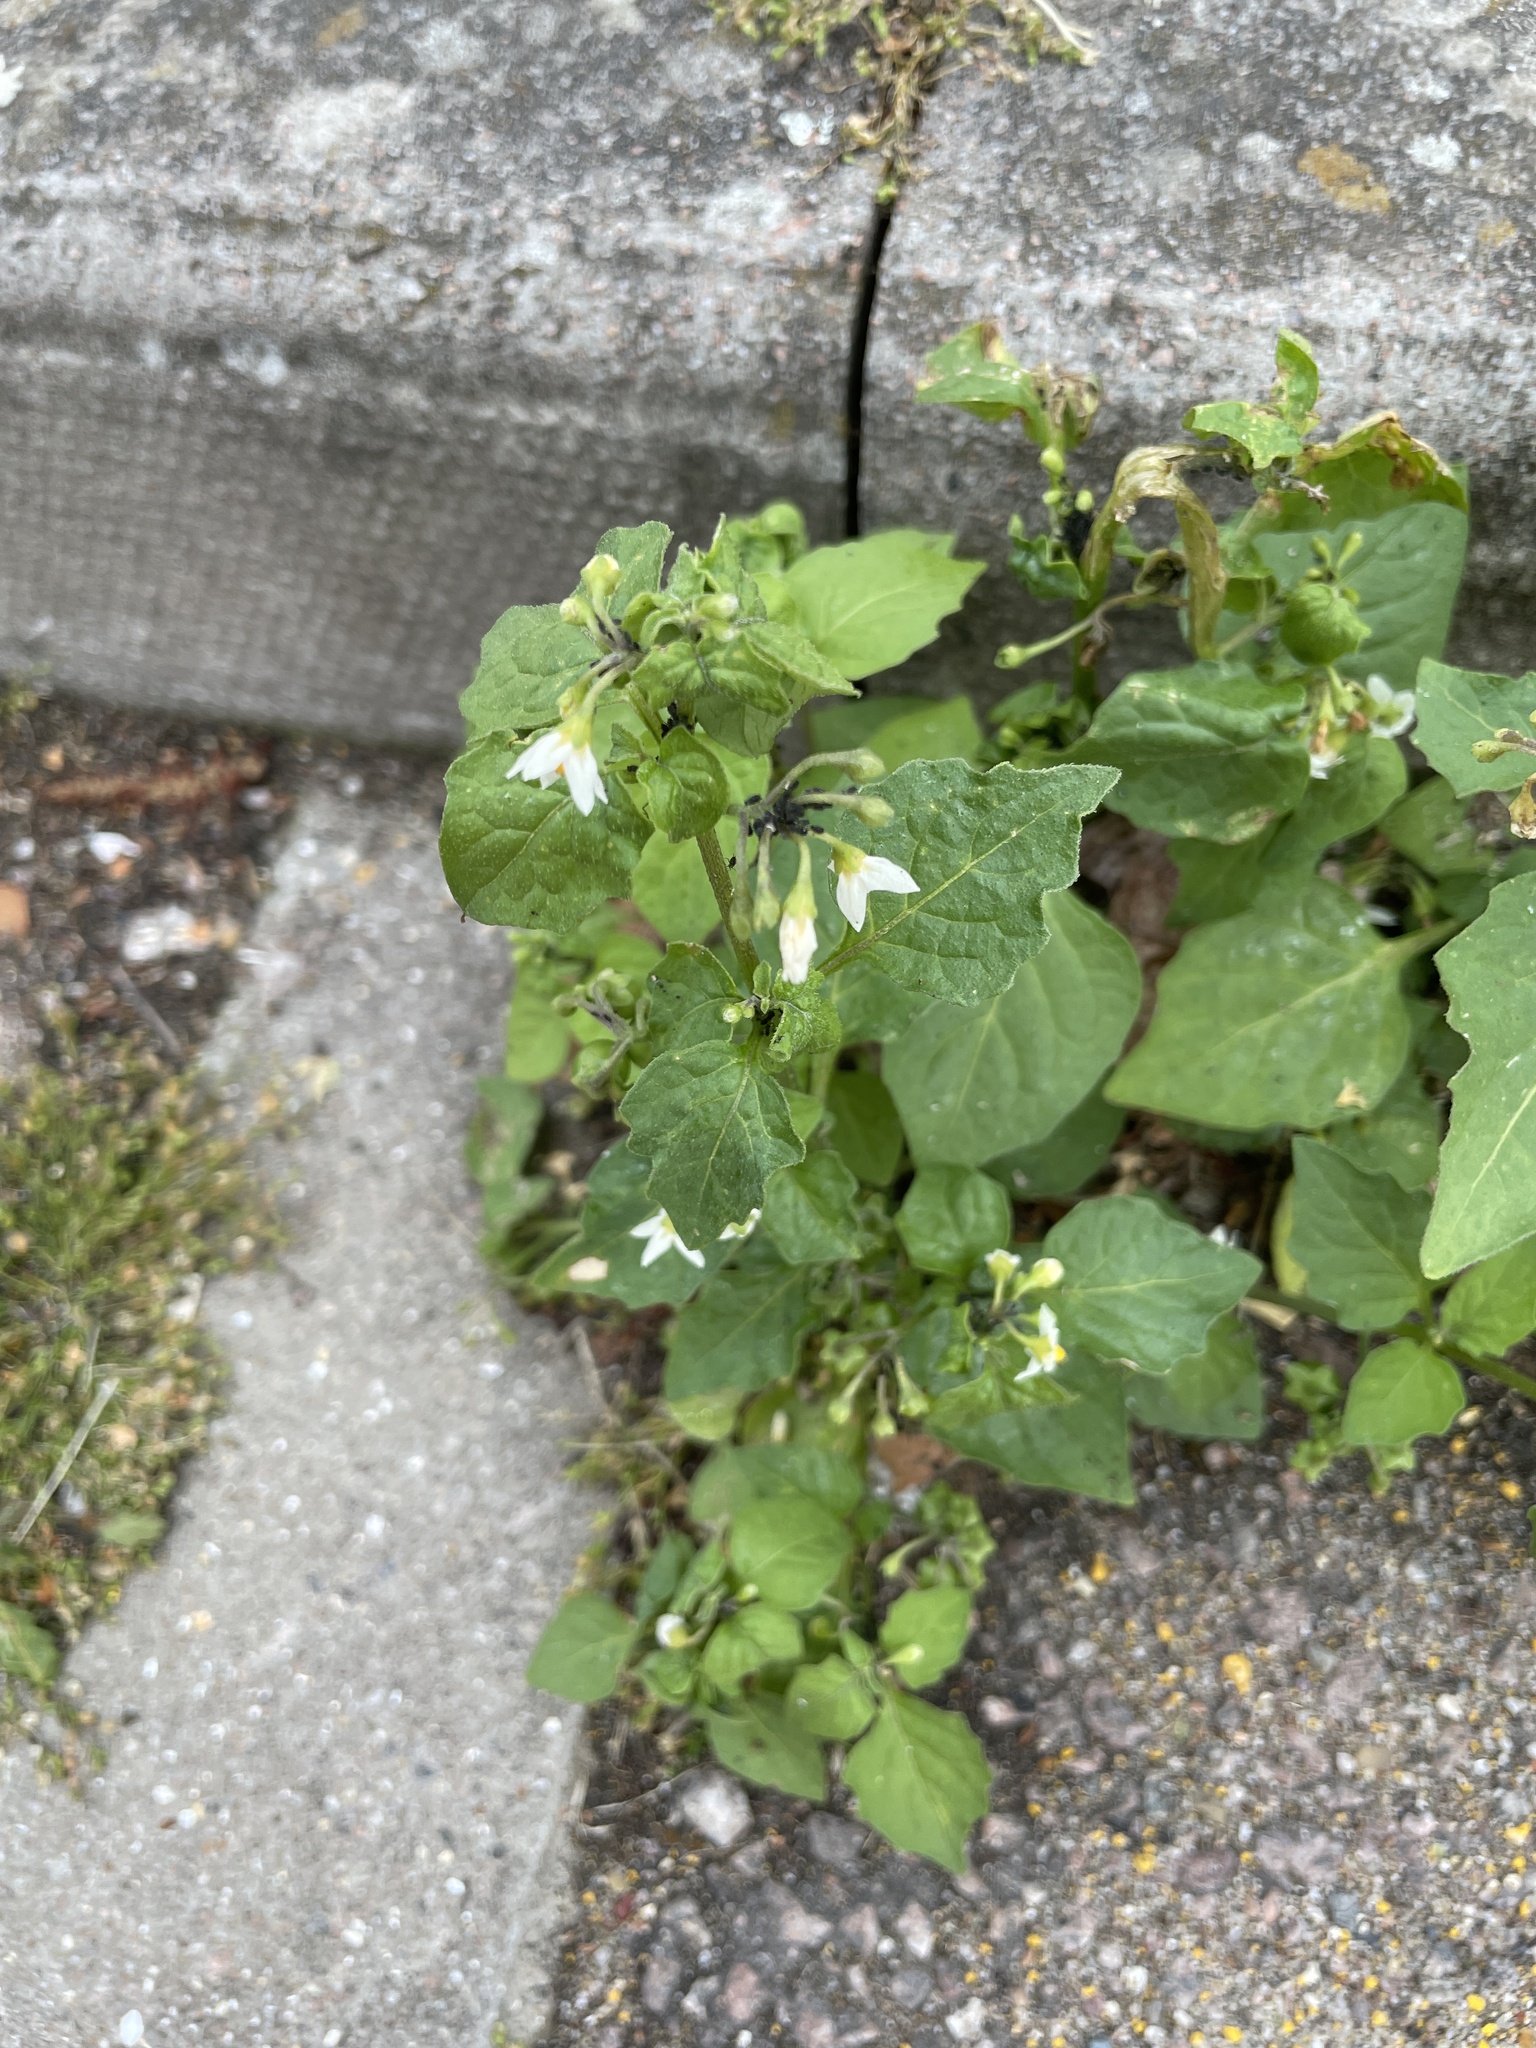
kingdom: Plantae
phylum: Tracheophyta
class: Magnoliopsida
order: Solanales
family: Solanaceae
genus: Solanum
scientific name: Solanum nigrum
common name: Black nightshade
